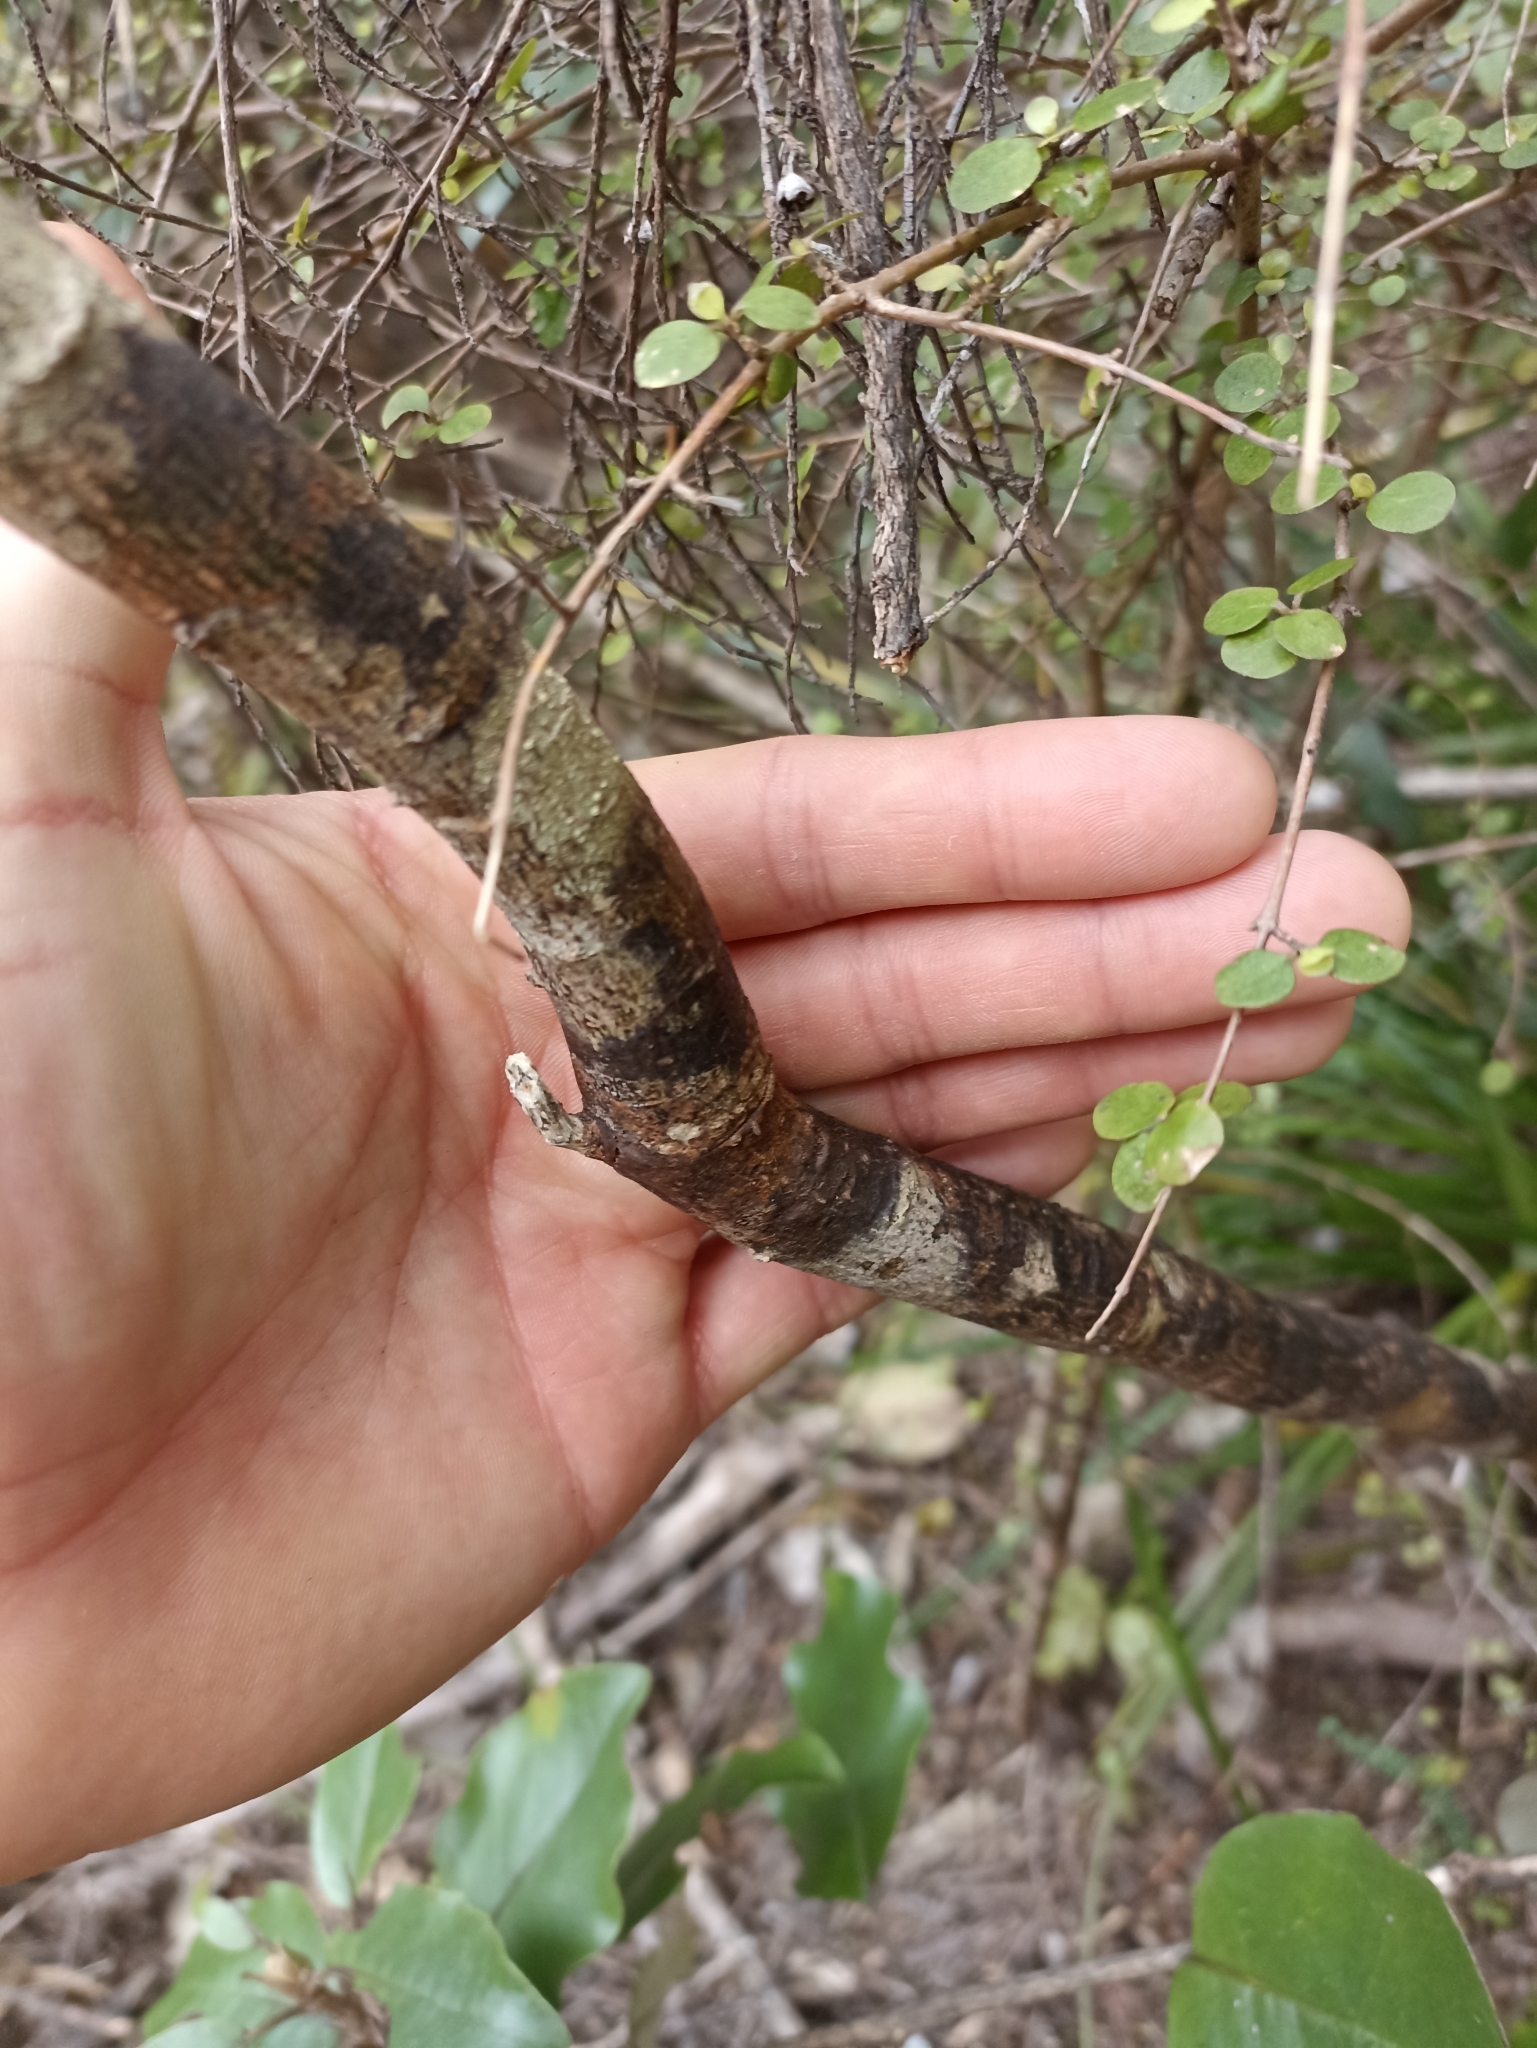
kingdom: Plantae
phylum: Tracheophyta
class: Magnoliopsida
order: Fabales
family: Fabaceae
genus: Sophora
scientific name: Sophora fulvida
